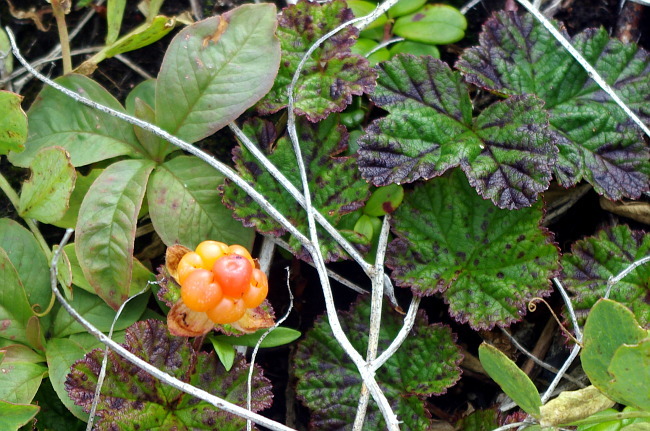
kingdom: Plantae
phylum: Tracheophyta
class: Magnoliopsida
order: Rosales
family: Rosaceae
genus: Rubus
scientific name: Rubus chamaemorus
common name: Cloudberry
